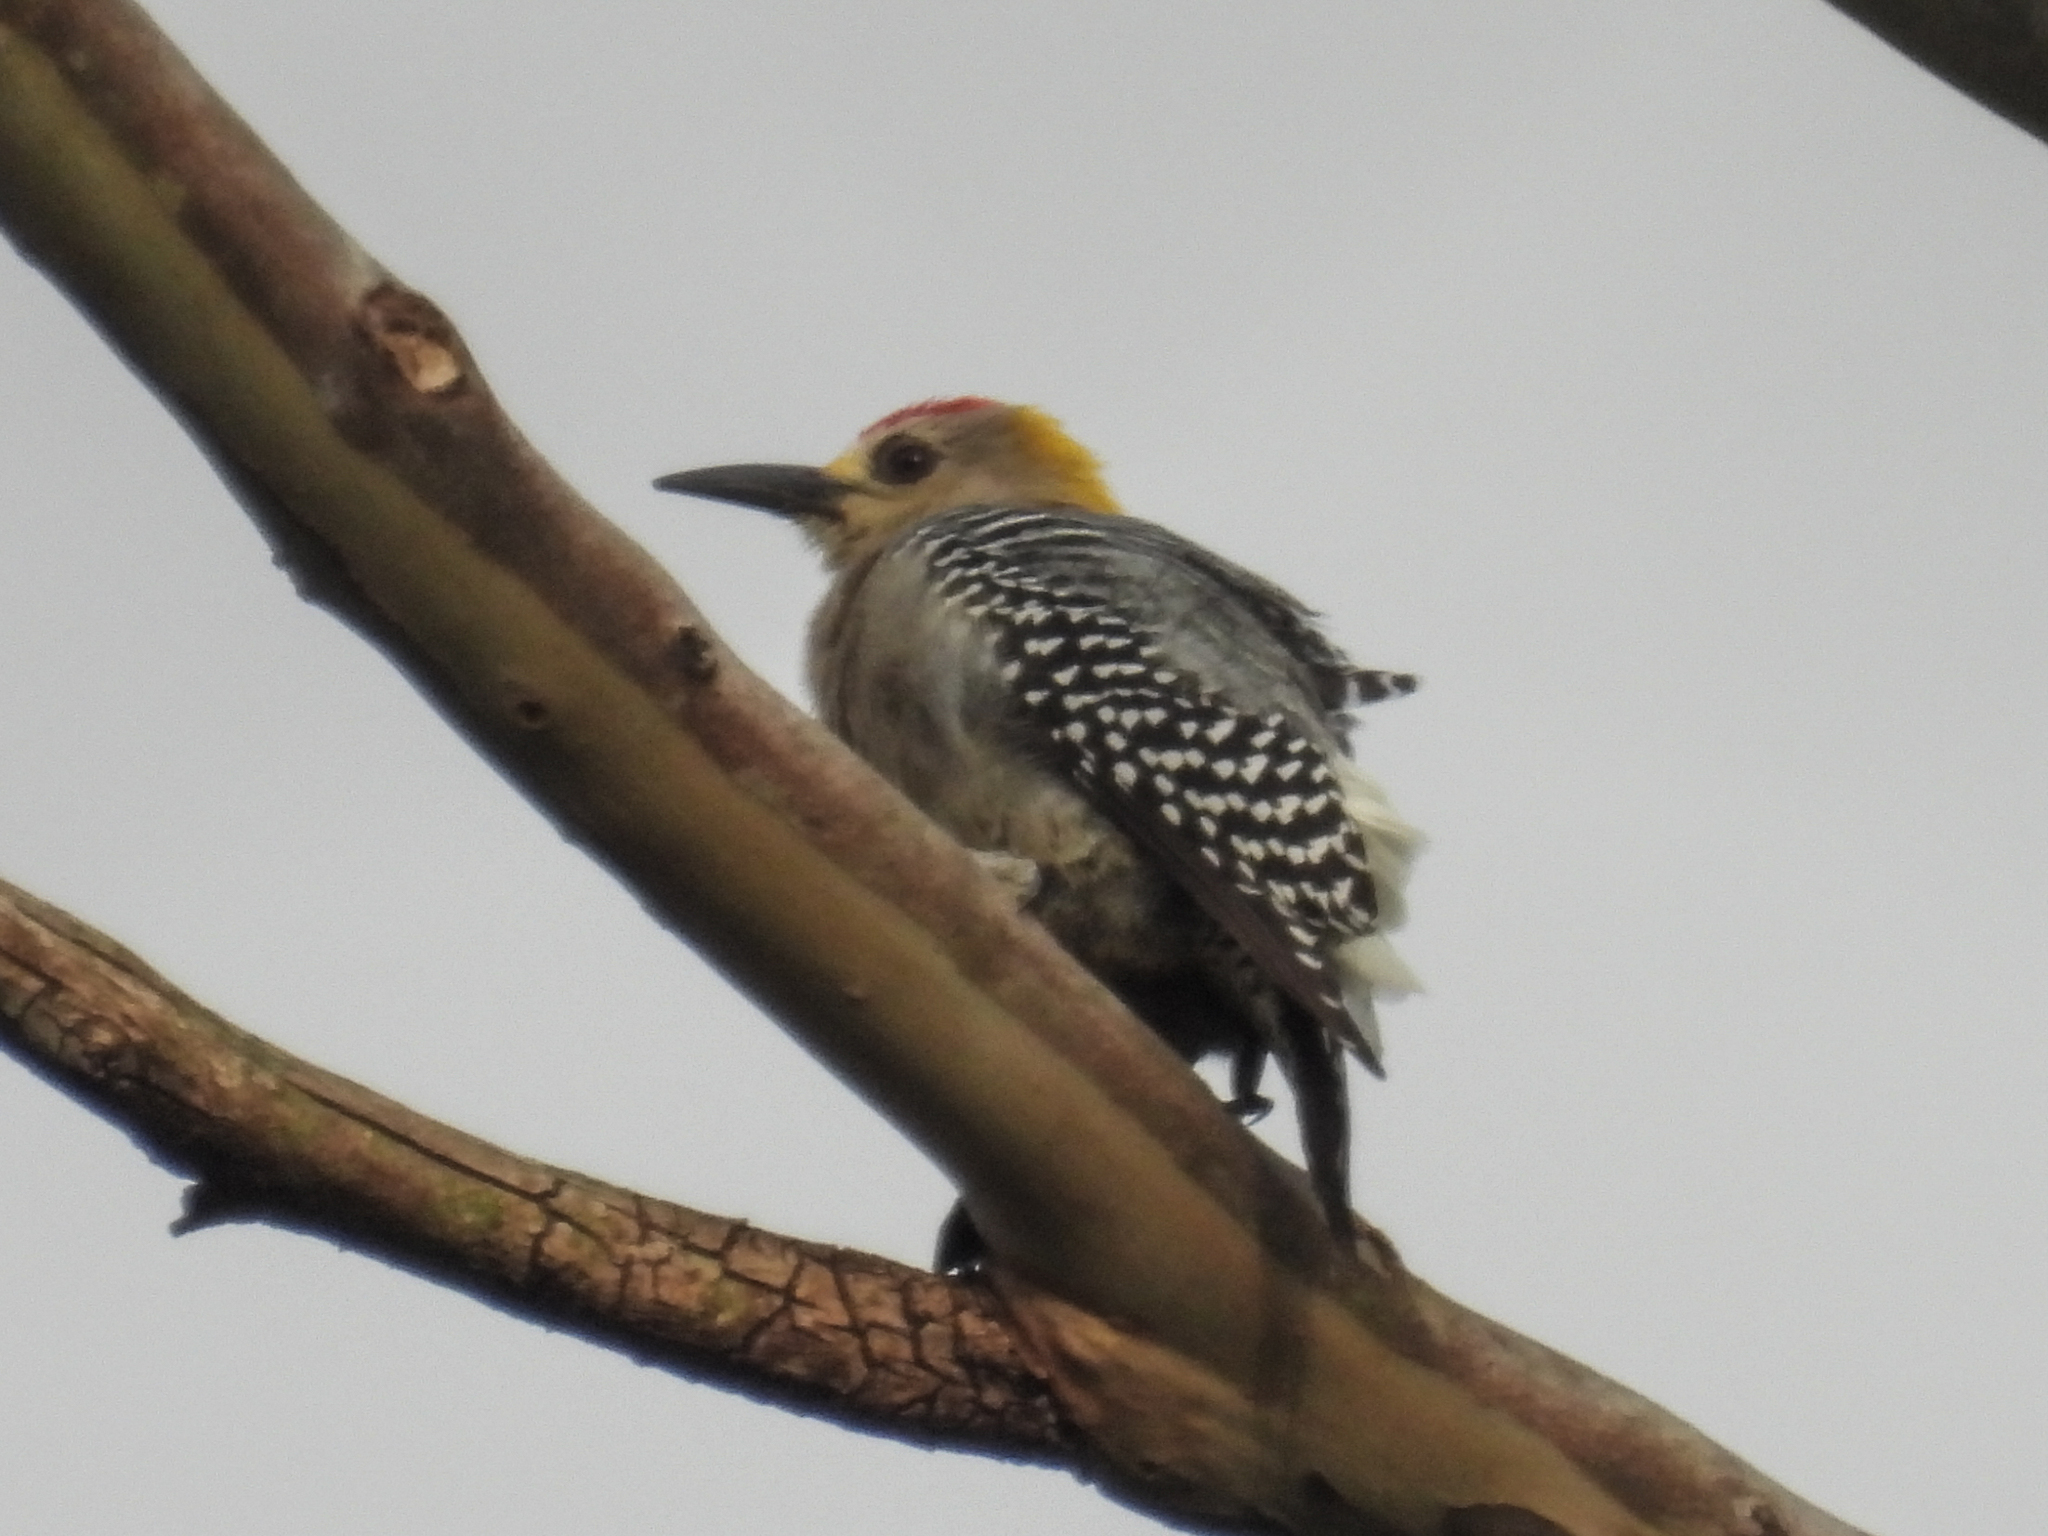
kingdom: Animalia
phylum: Chordata
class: Aves
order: Piciformes
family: Picidae
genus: Melanerpes
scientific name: Melanerpes hoffmannii
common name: Hoffmann's woodpecker
